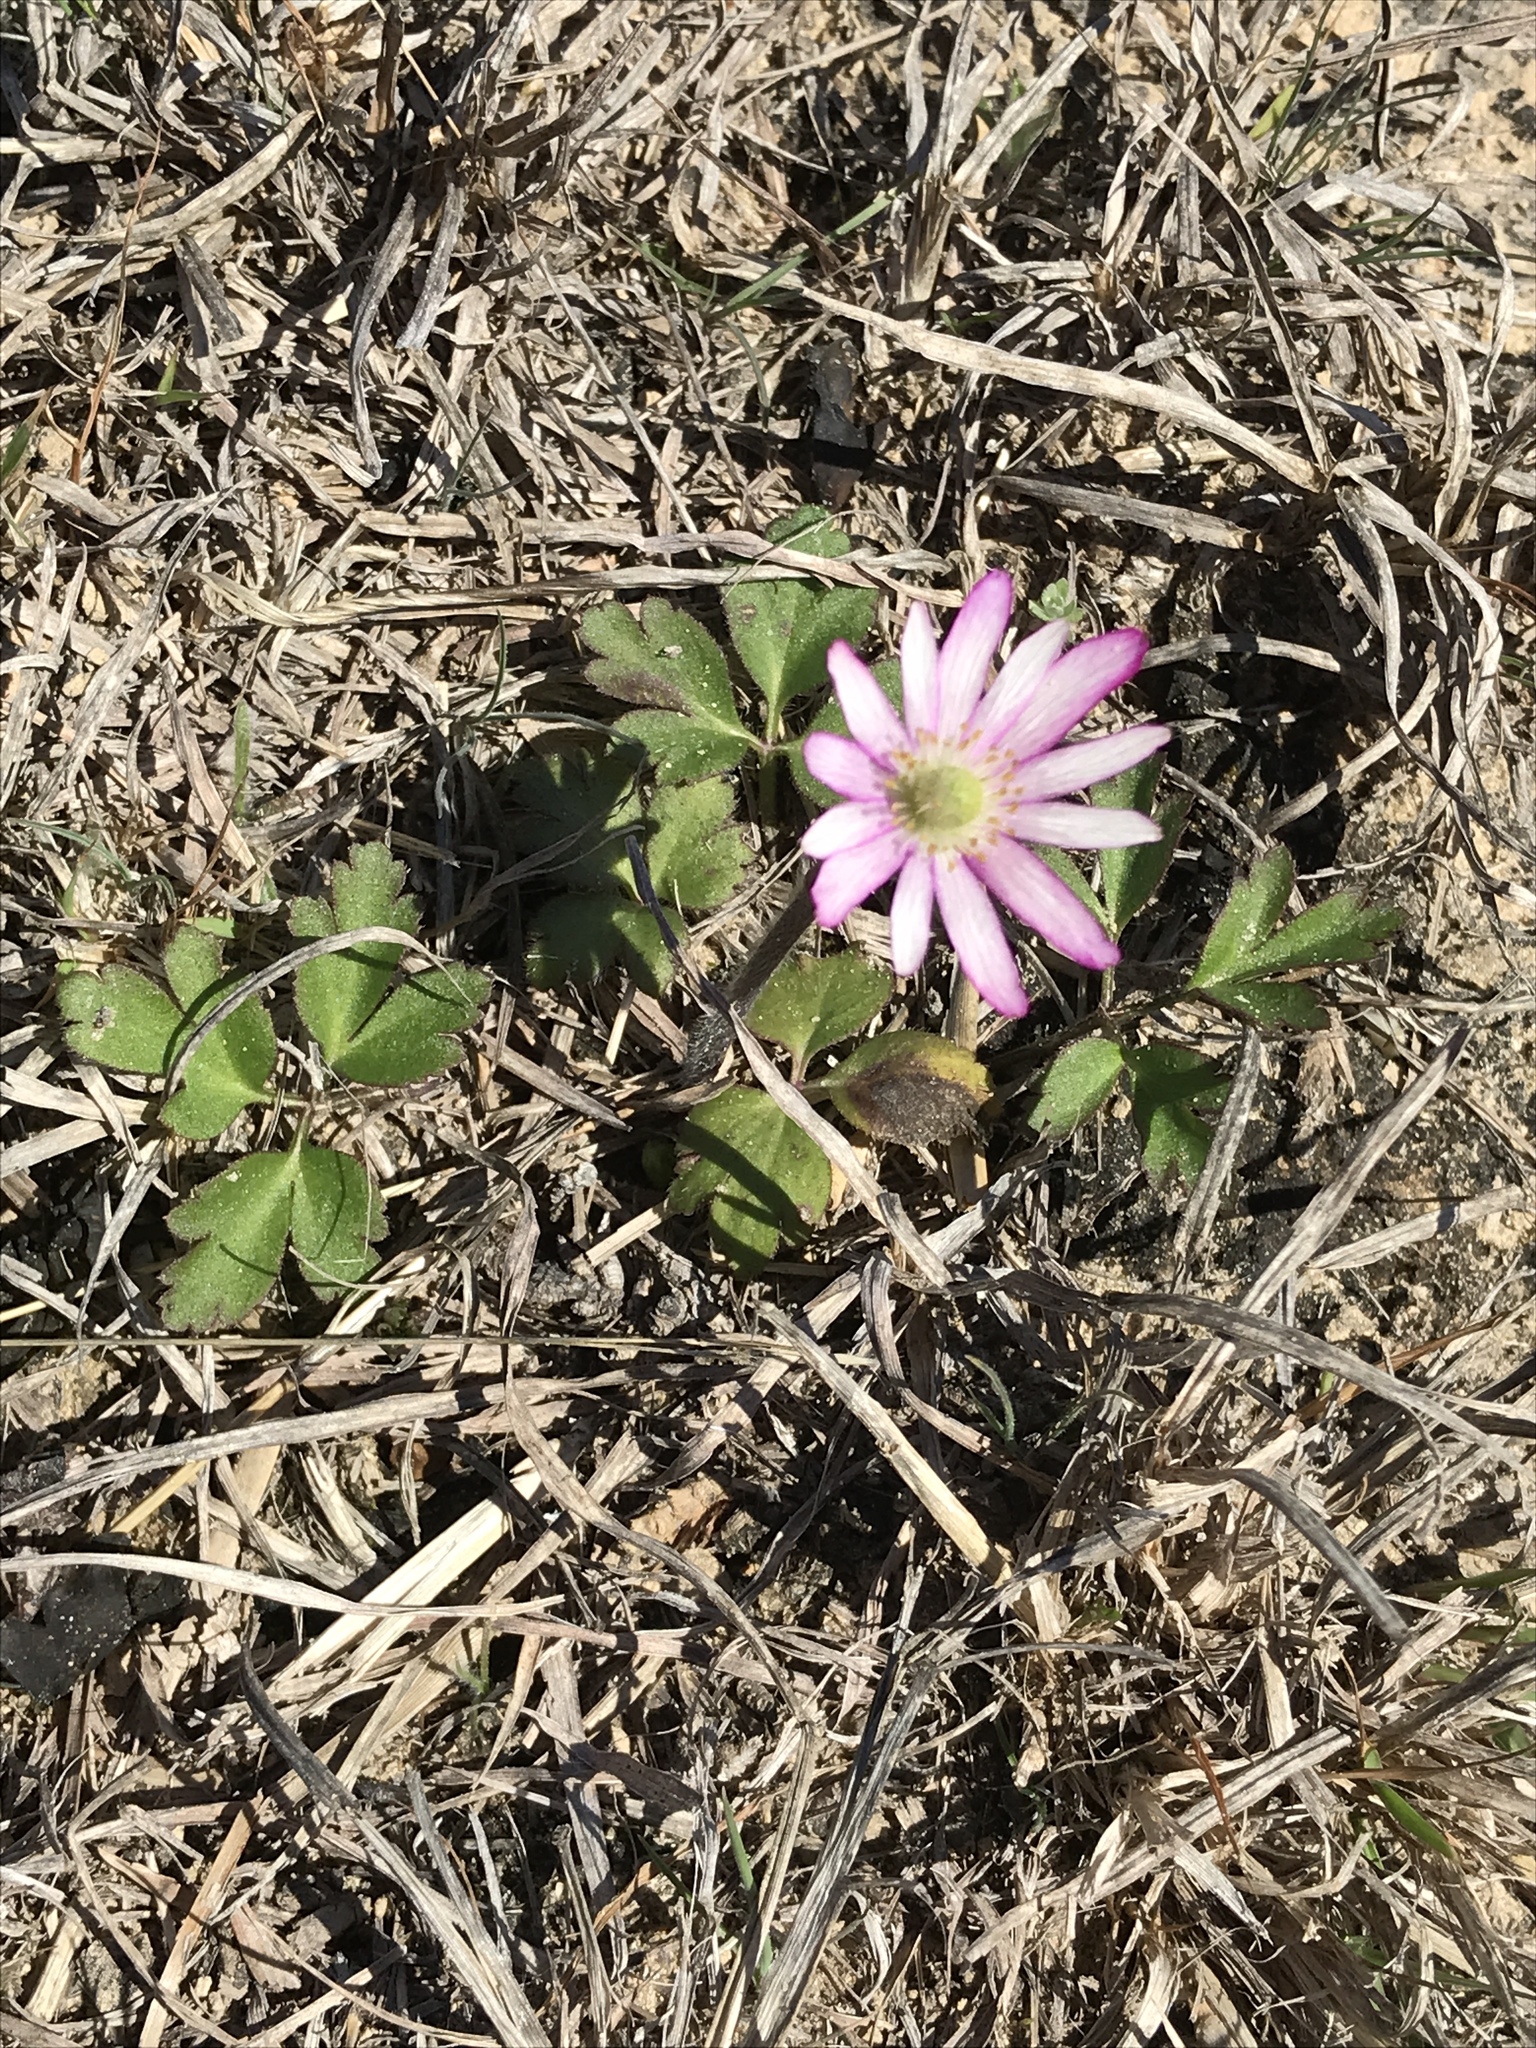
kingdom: Plantae
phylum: Tracheophyta
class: Magnoliopsida
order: Ranunculales
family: Ranunculaceae
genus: Anemone
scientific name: Anemone berlandieri
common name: Ten-petal anemone
